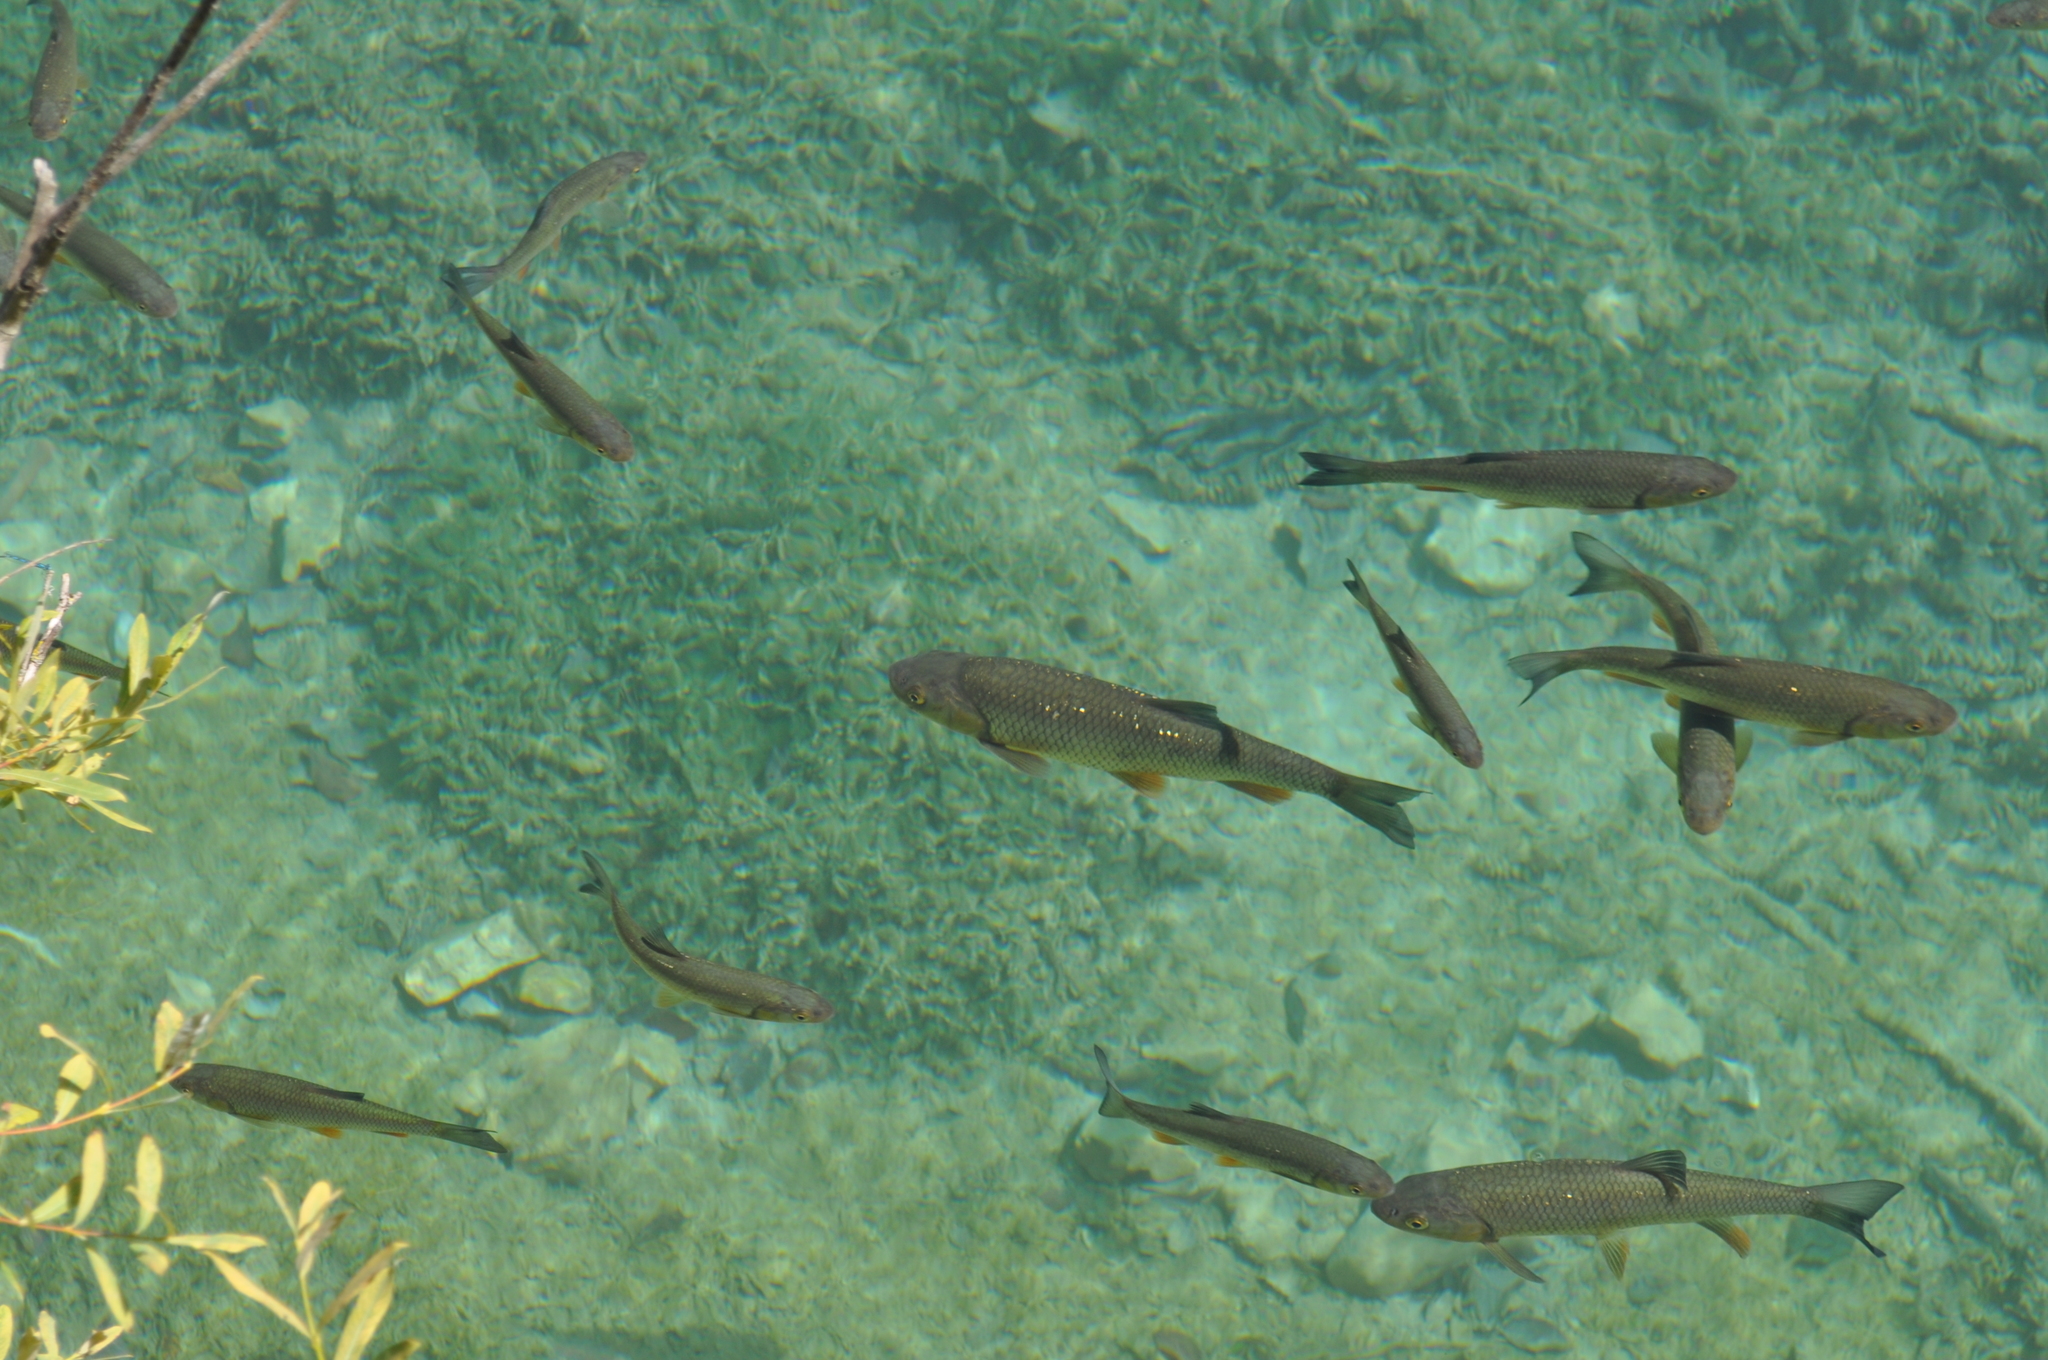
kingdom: Animalia
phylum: Chordata
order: Cypriniformes
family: Cyprinidae
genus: Squalius
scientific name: Squalius cephalus
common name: Chub
